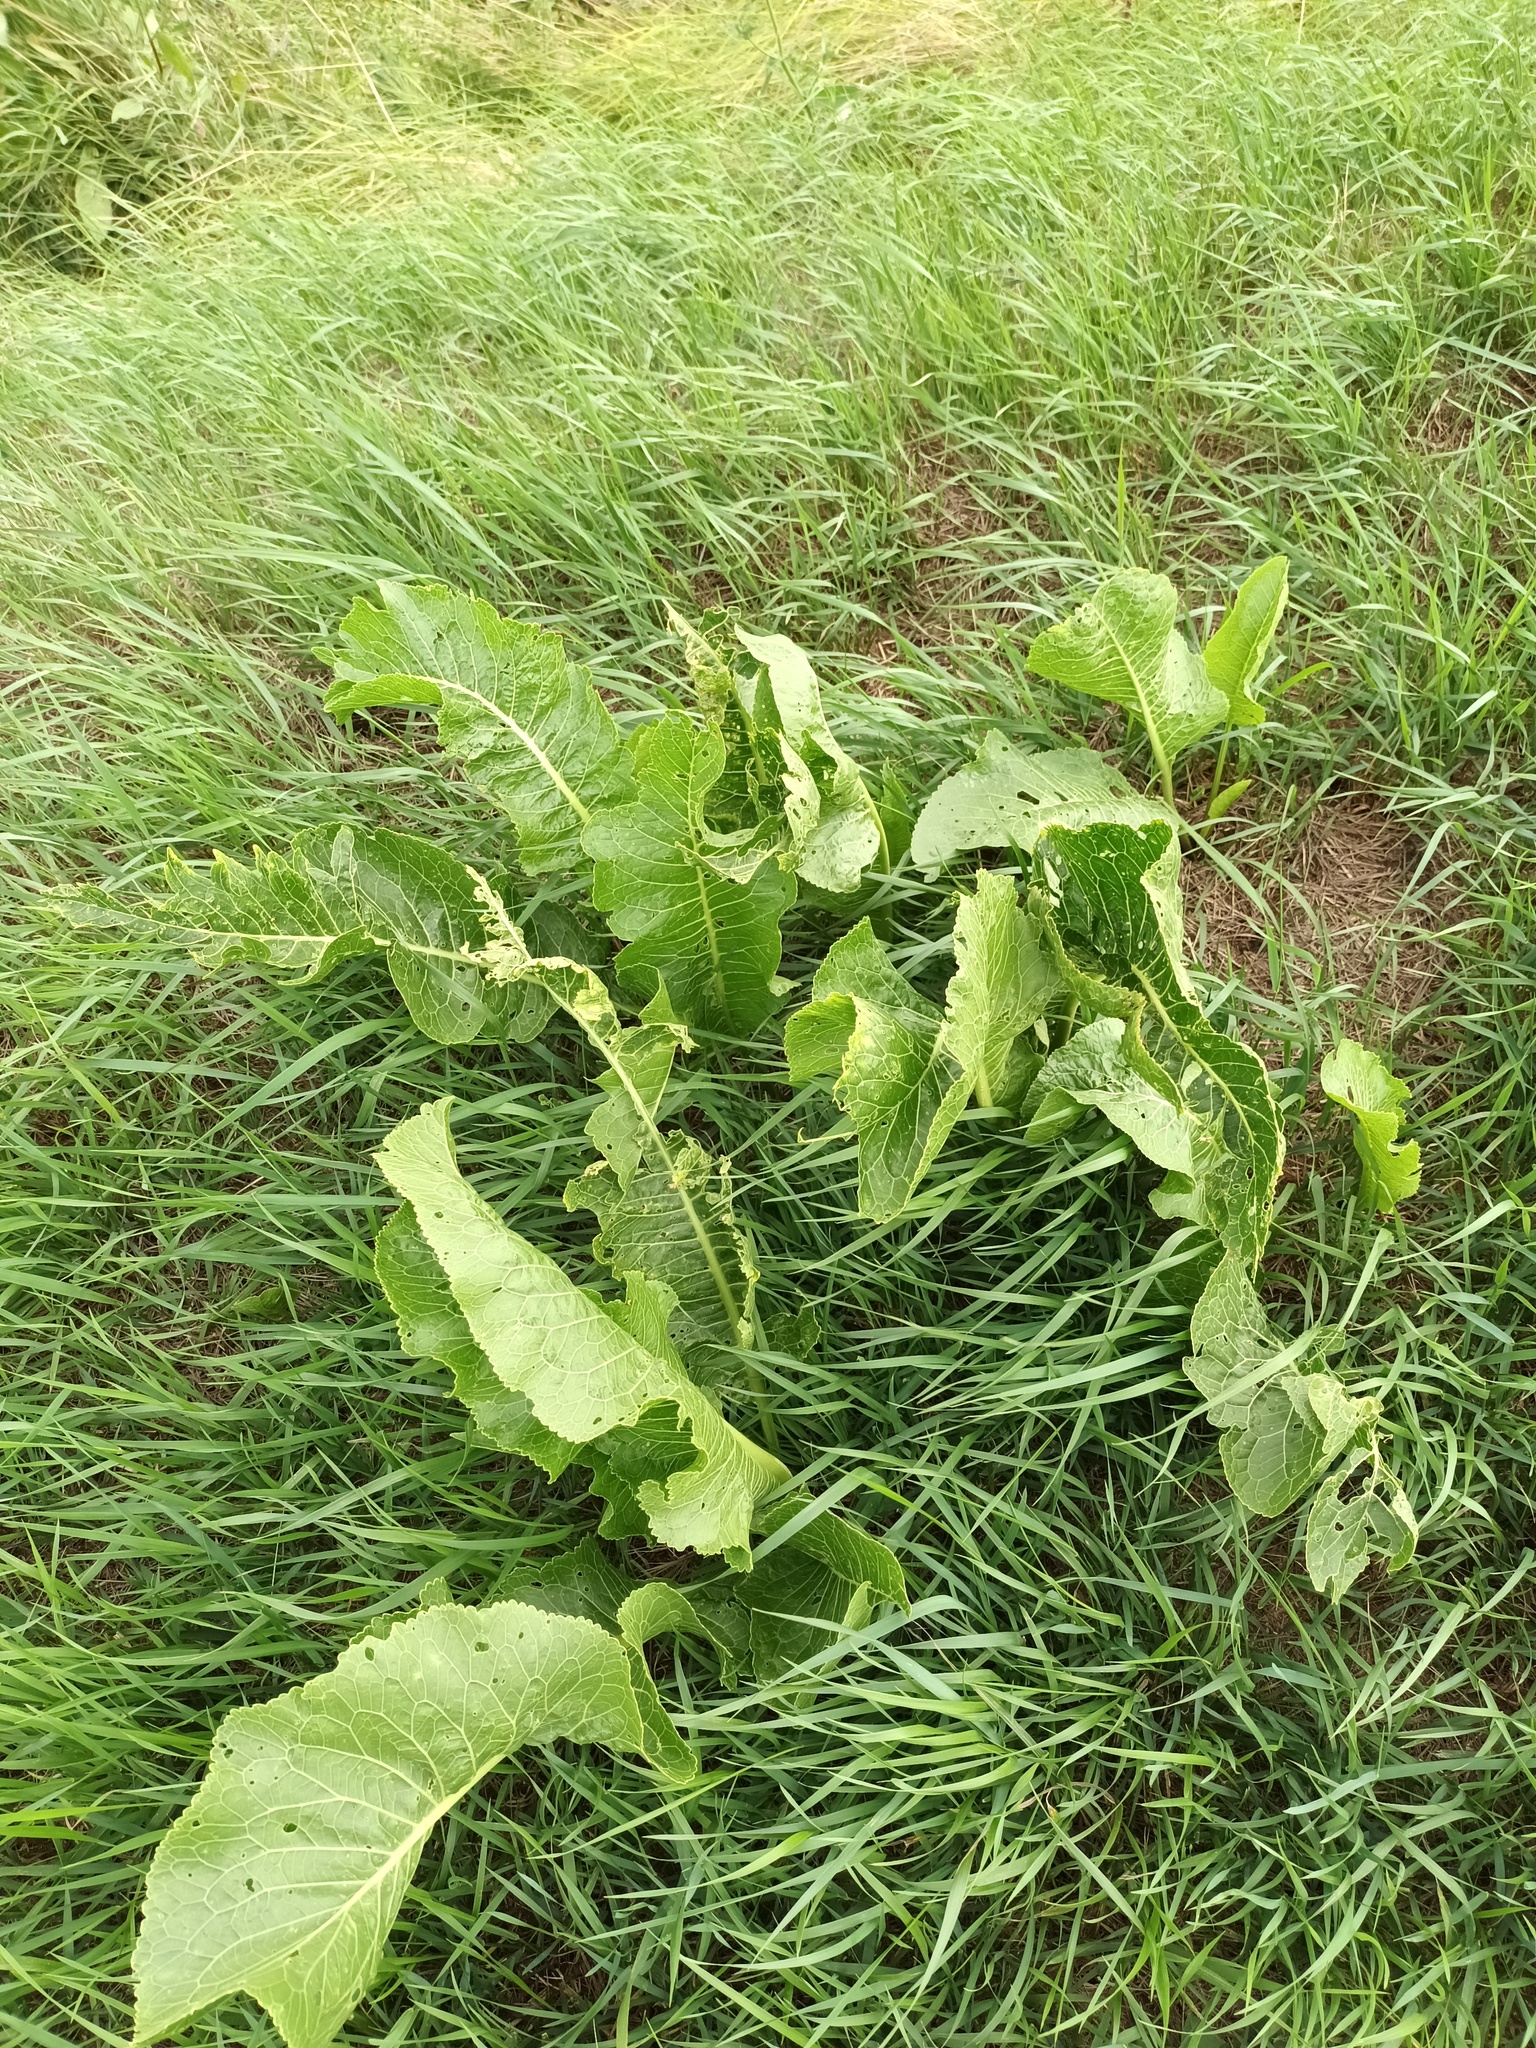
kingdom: Plantae
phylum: Tracheophyta
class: Magnoliopsida
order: Brassicales
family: Brassicaceae
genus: Armoracia
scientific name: Armoracia rusticana
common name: Horseradish
